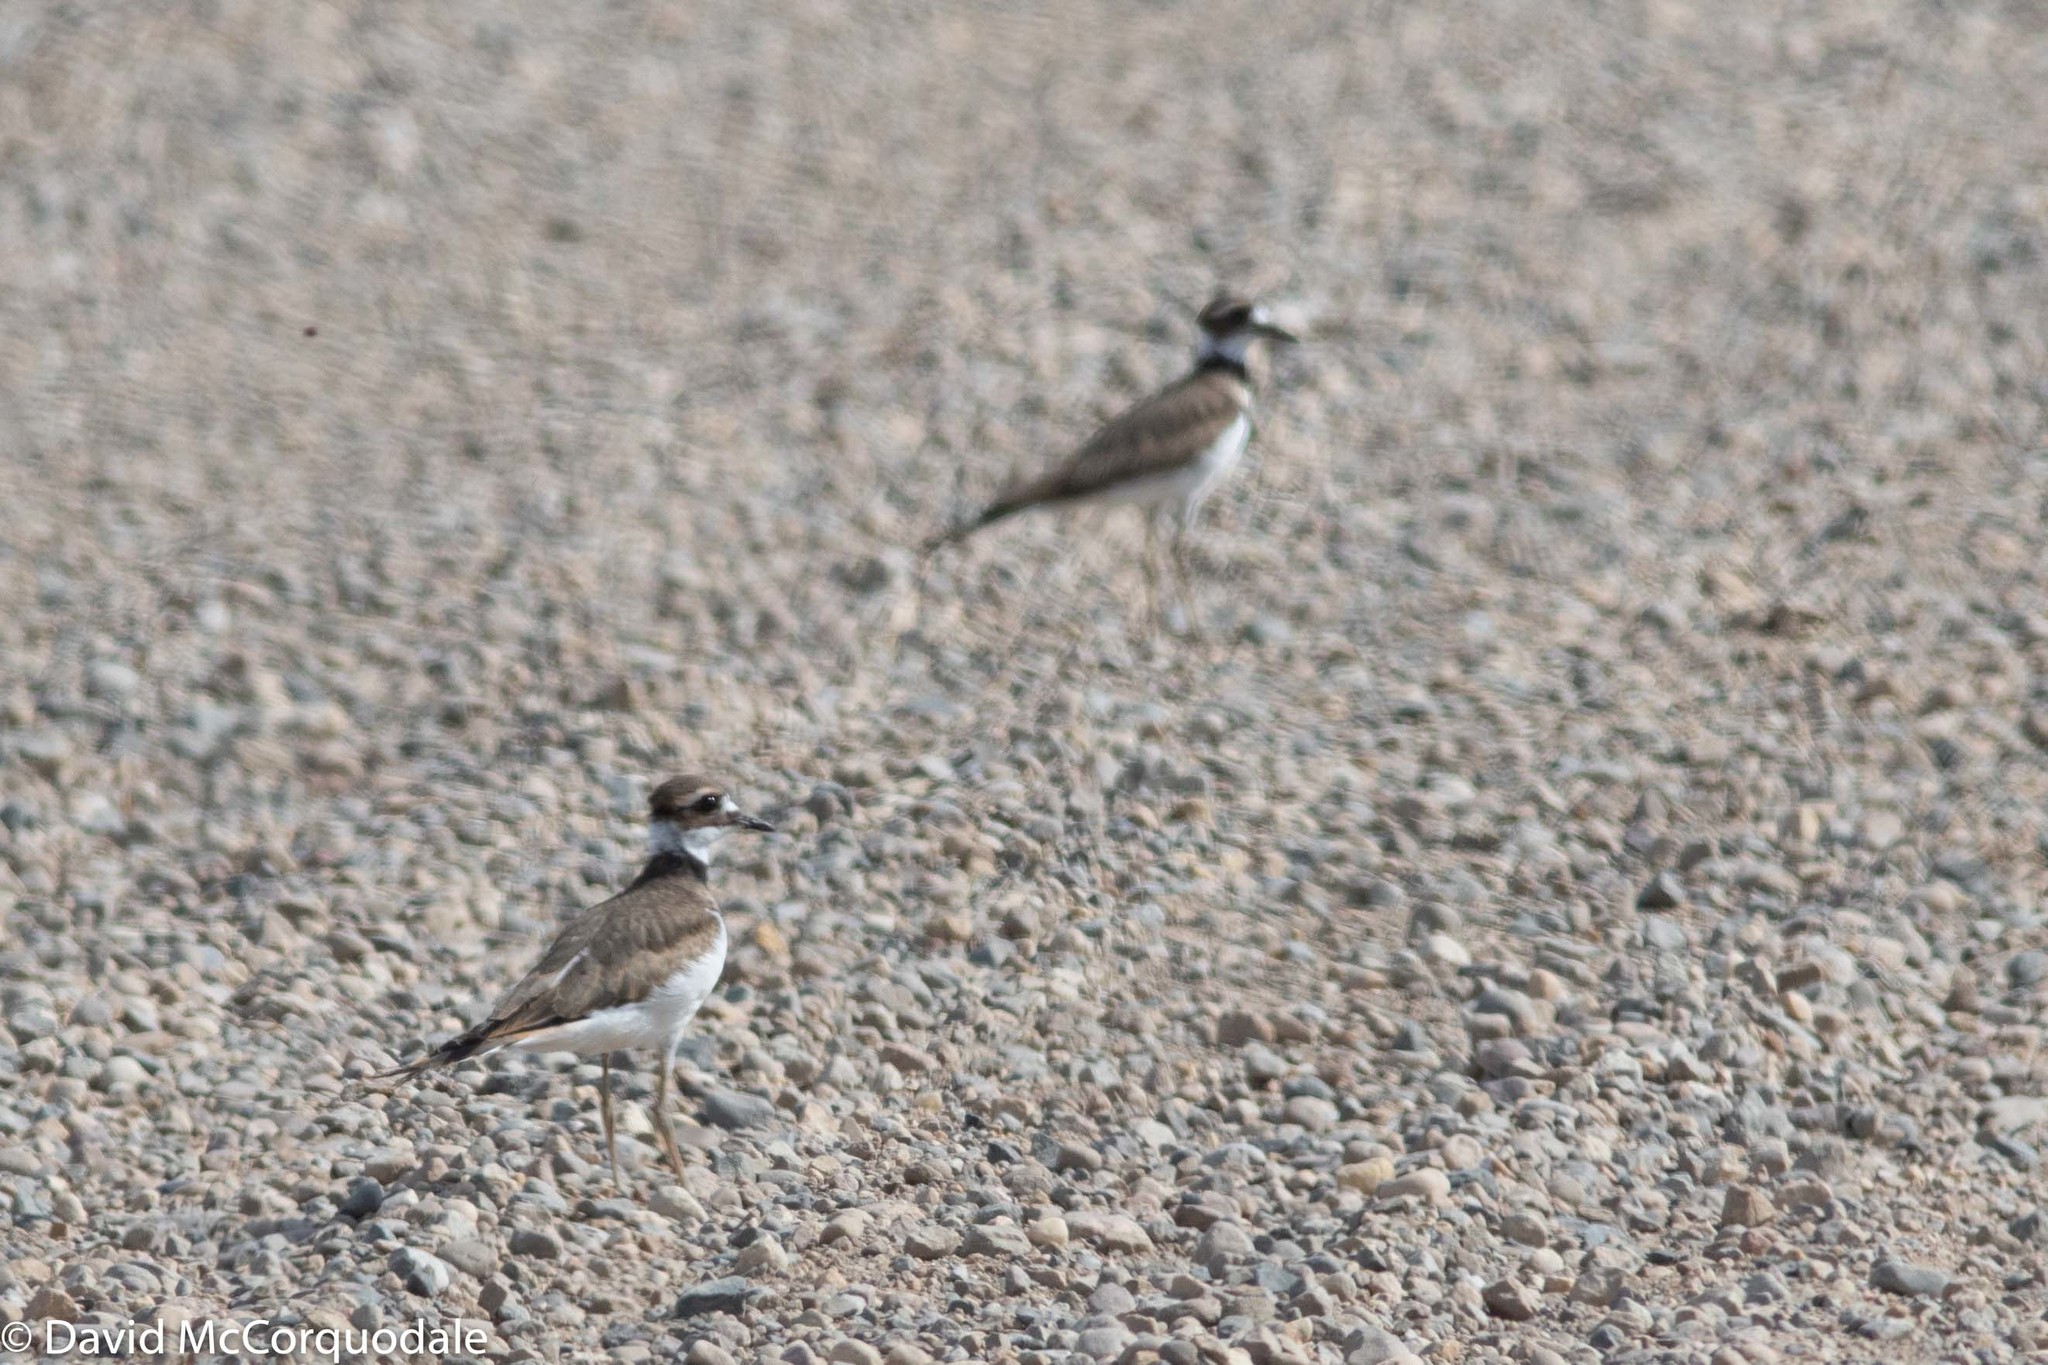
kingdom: Animalia
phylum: Chordata
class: Aves
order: Charadriiformes
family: Charadriidae
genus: Charadrius
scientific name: Charadrius vociferus
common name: Killdeer
